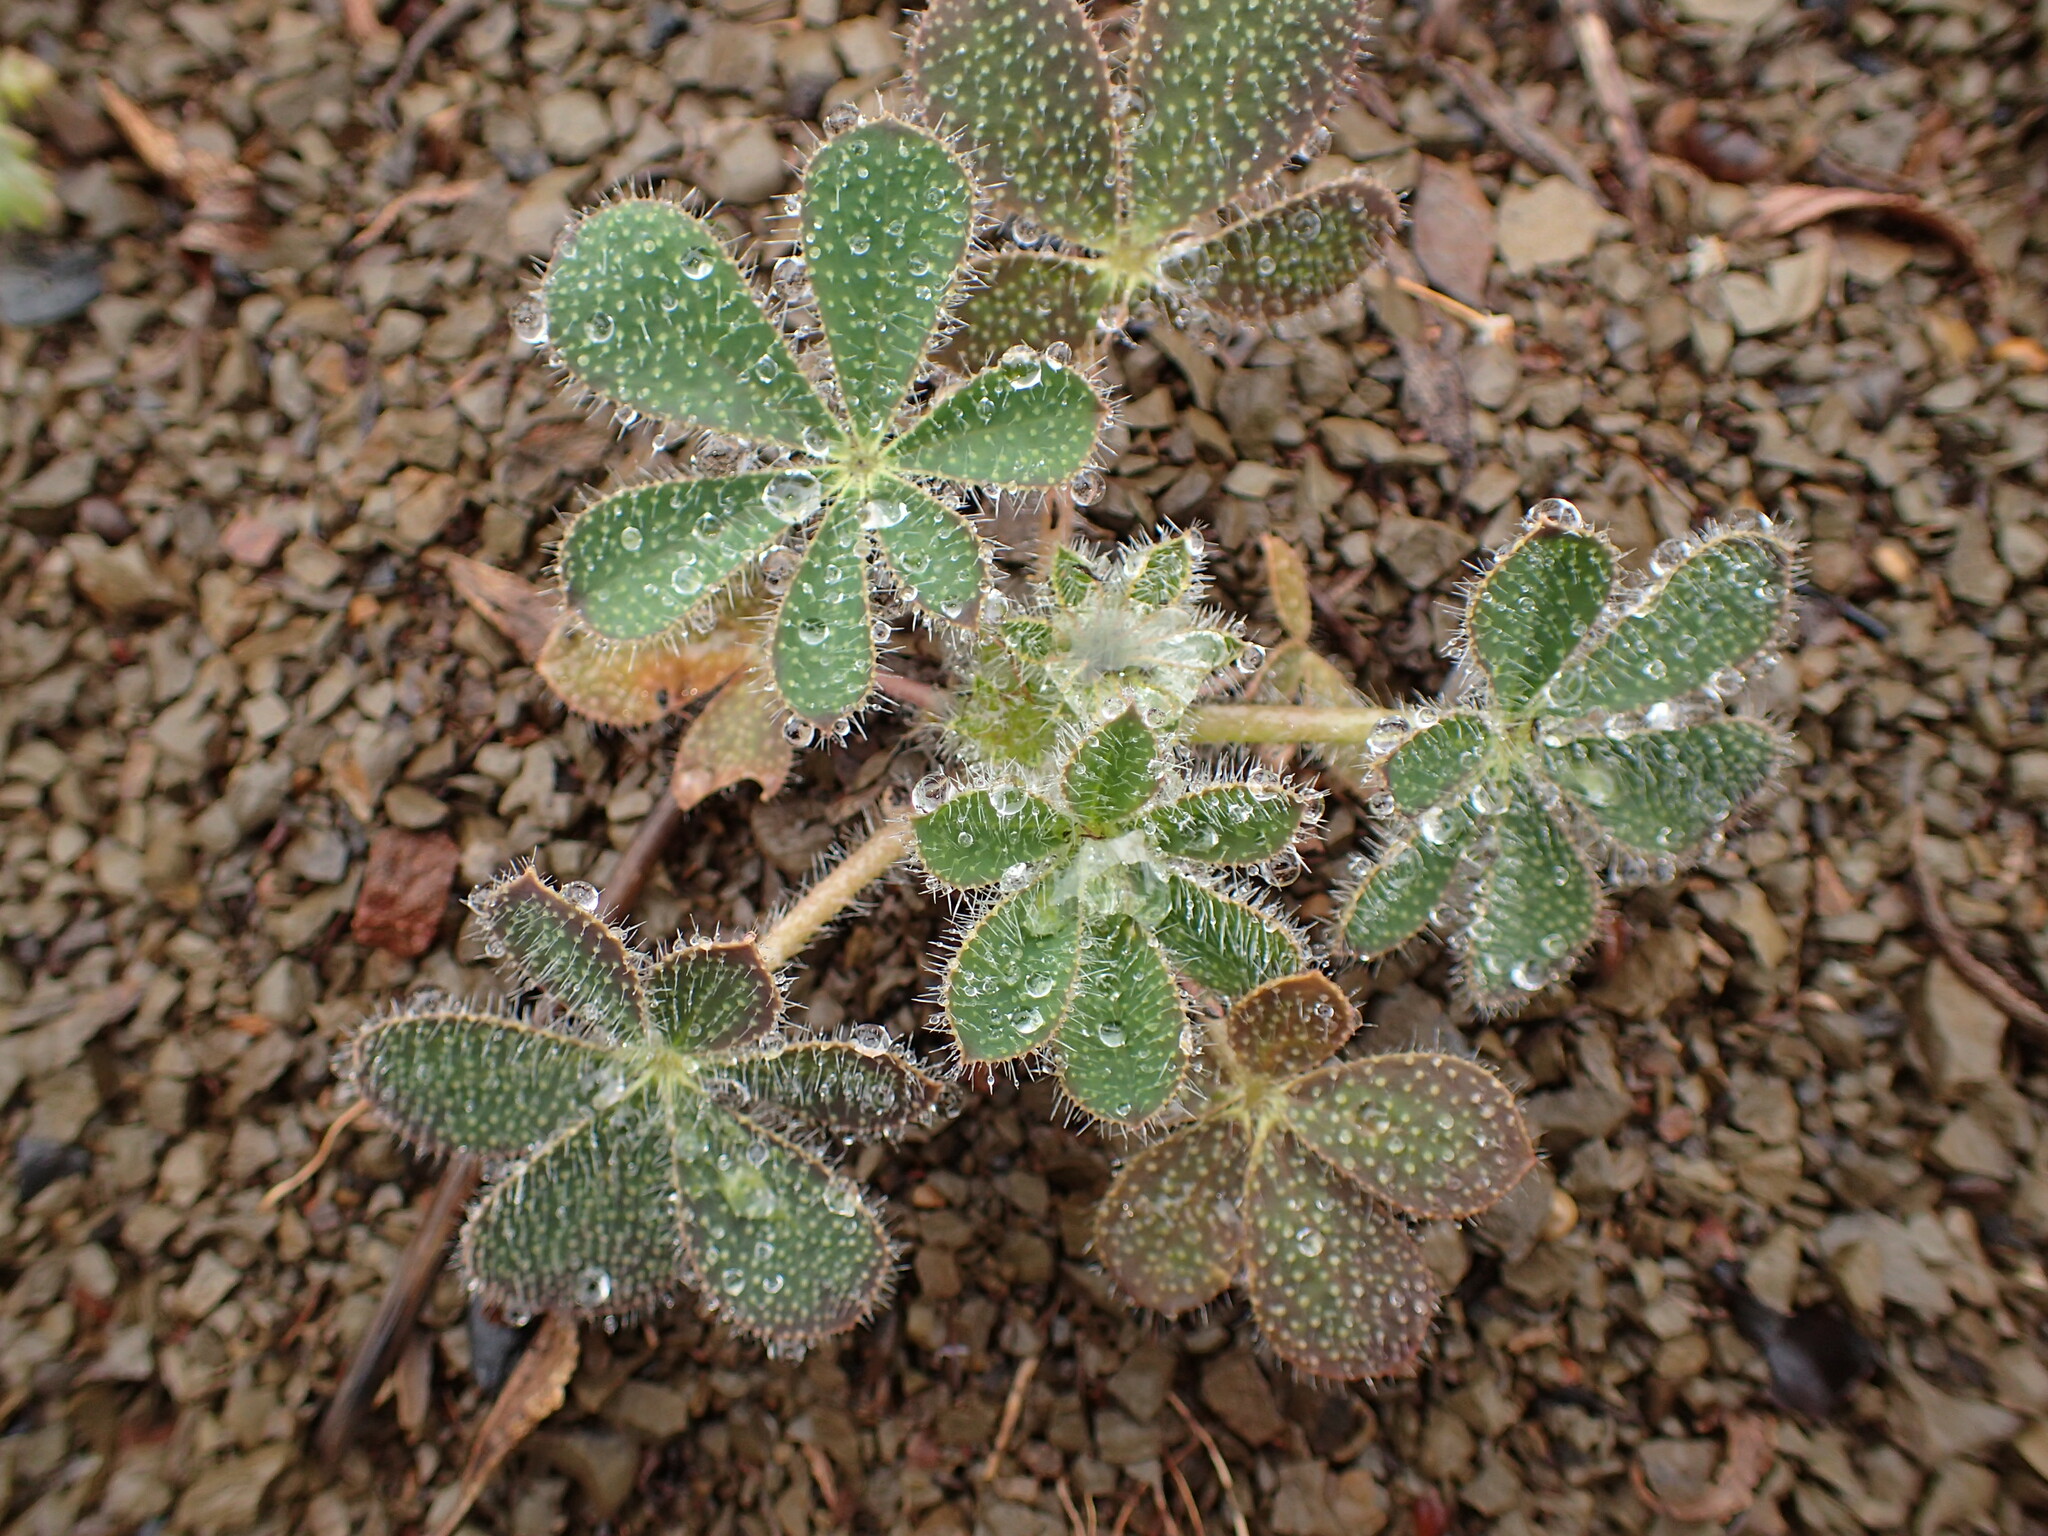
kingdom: Plantae
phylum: Tracheophyta
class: Magnoliopsida
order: Fabales
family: Fabaceae
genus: Lupinus
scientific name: Lupinus hirsutissimus
